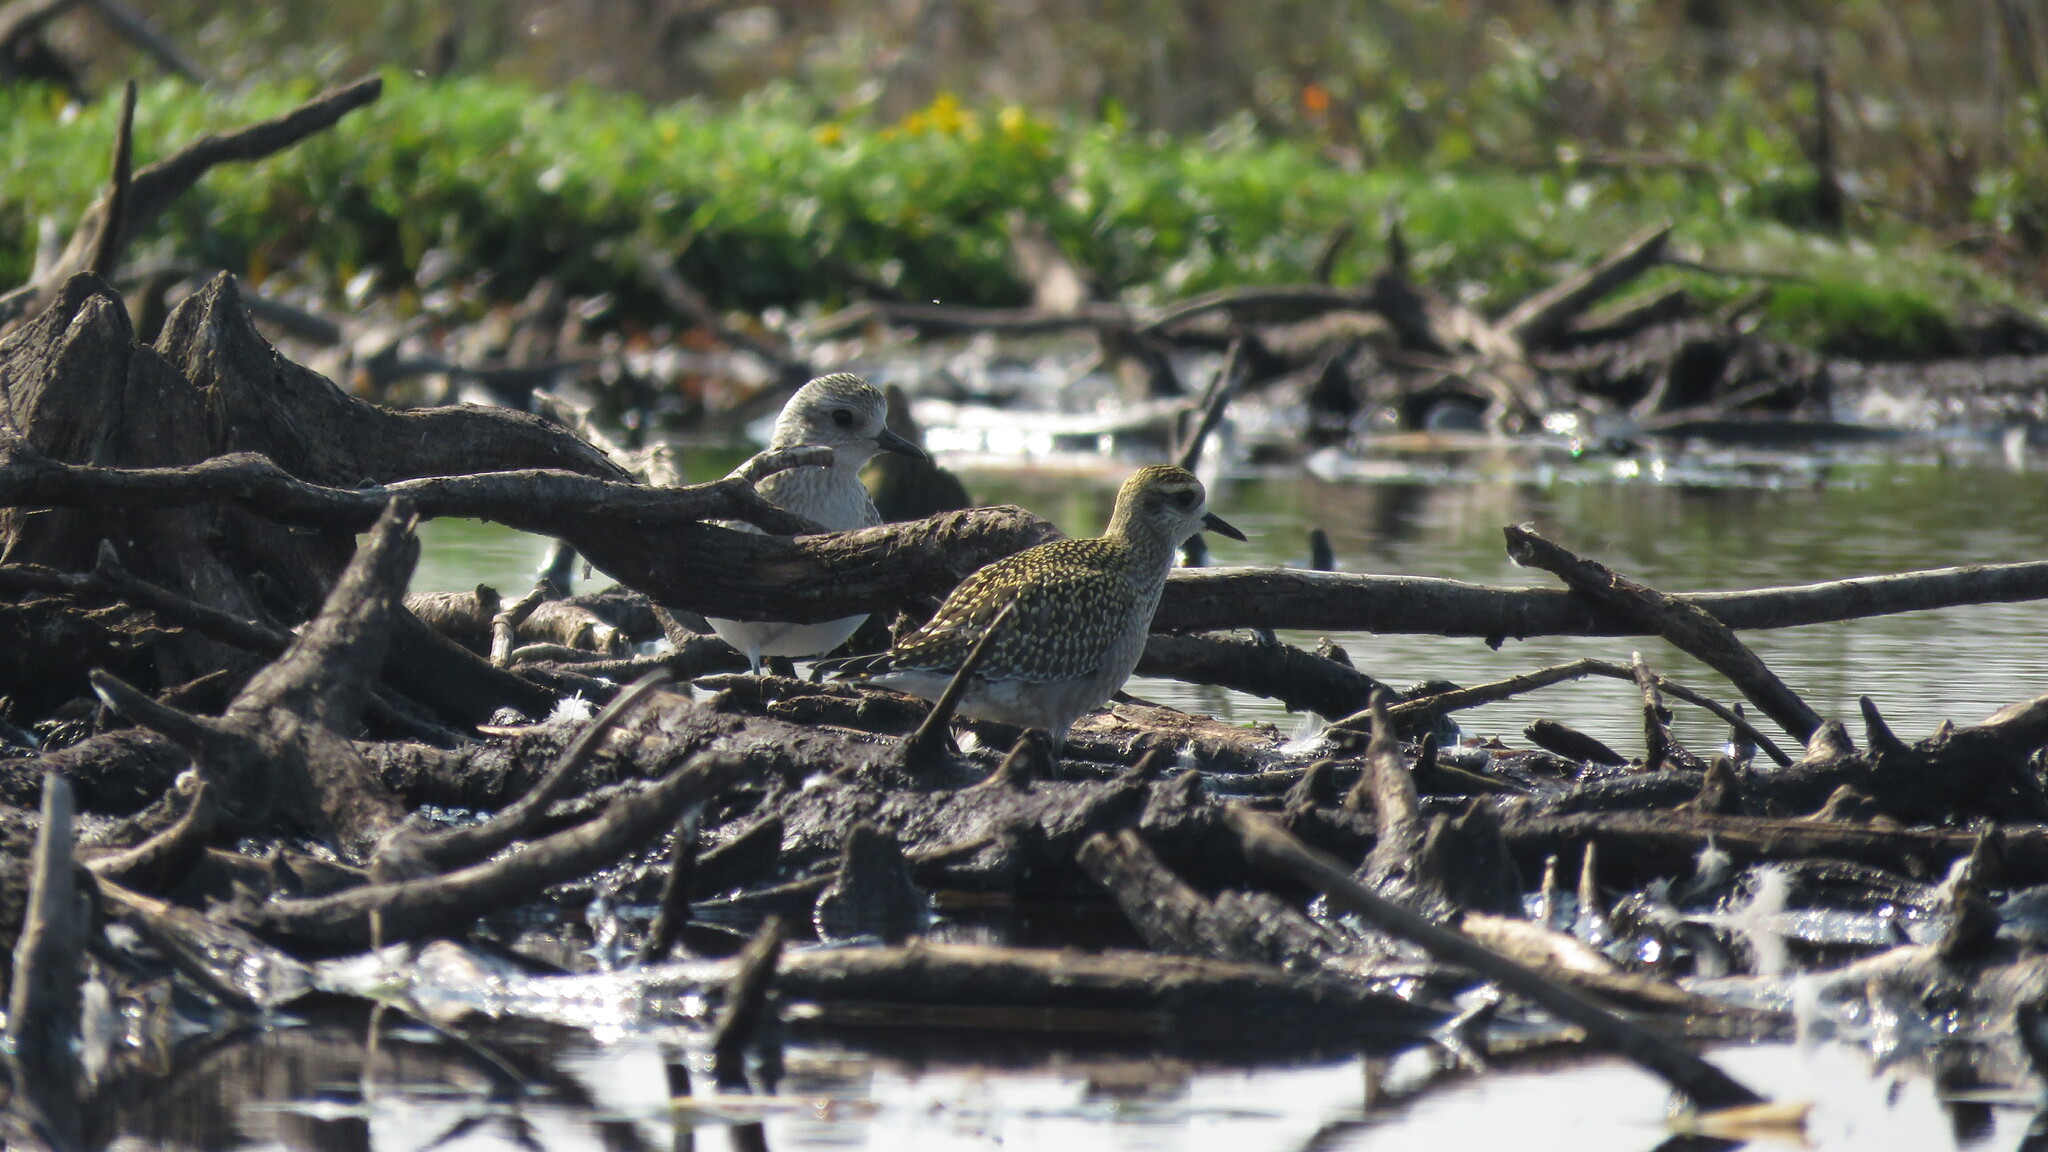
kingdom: Animalia
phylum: Chordata
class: Aves
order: Charadriiformes
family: Charadriidae
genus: Pluvialis
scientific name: Pluvialis dominica
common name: American golden plover
